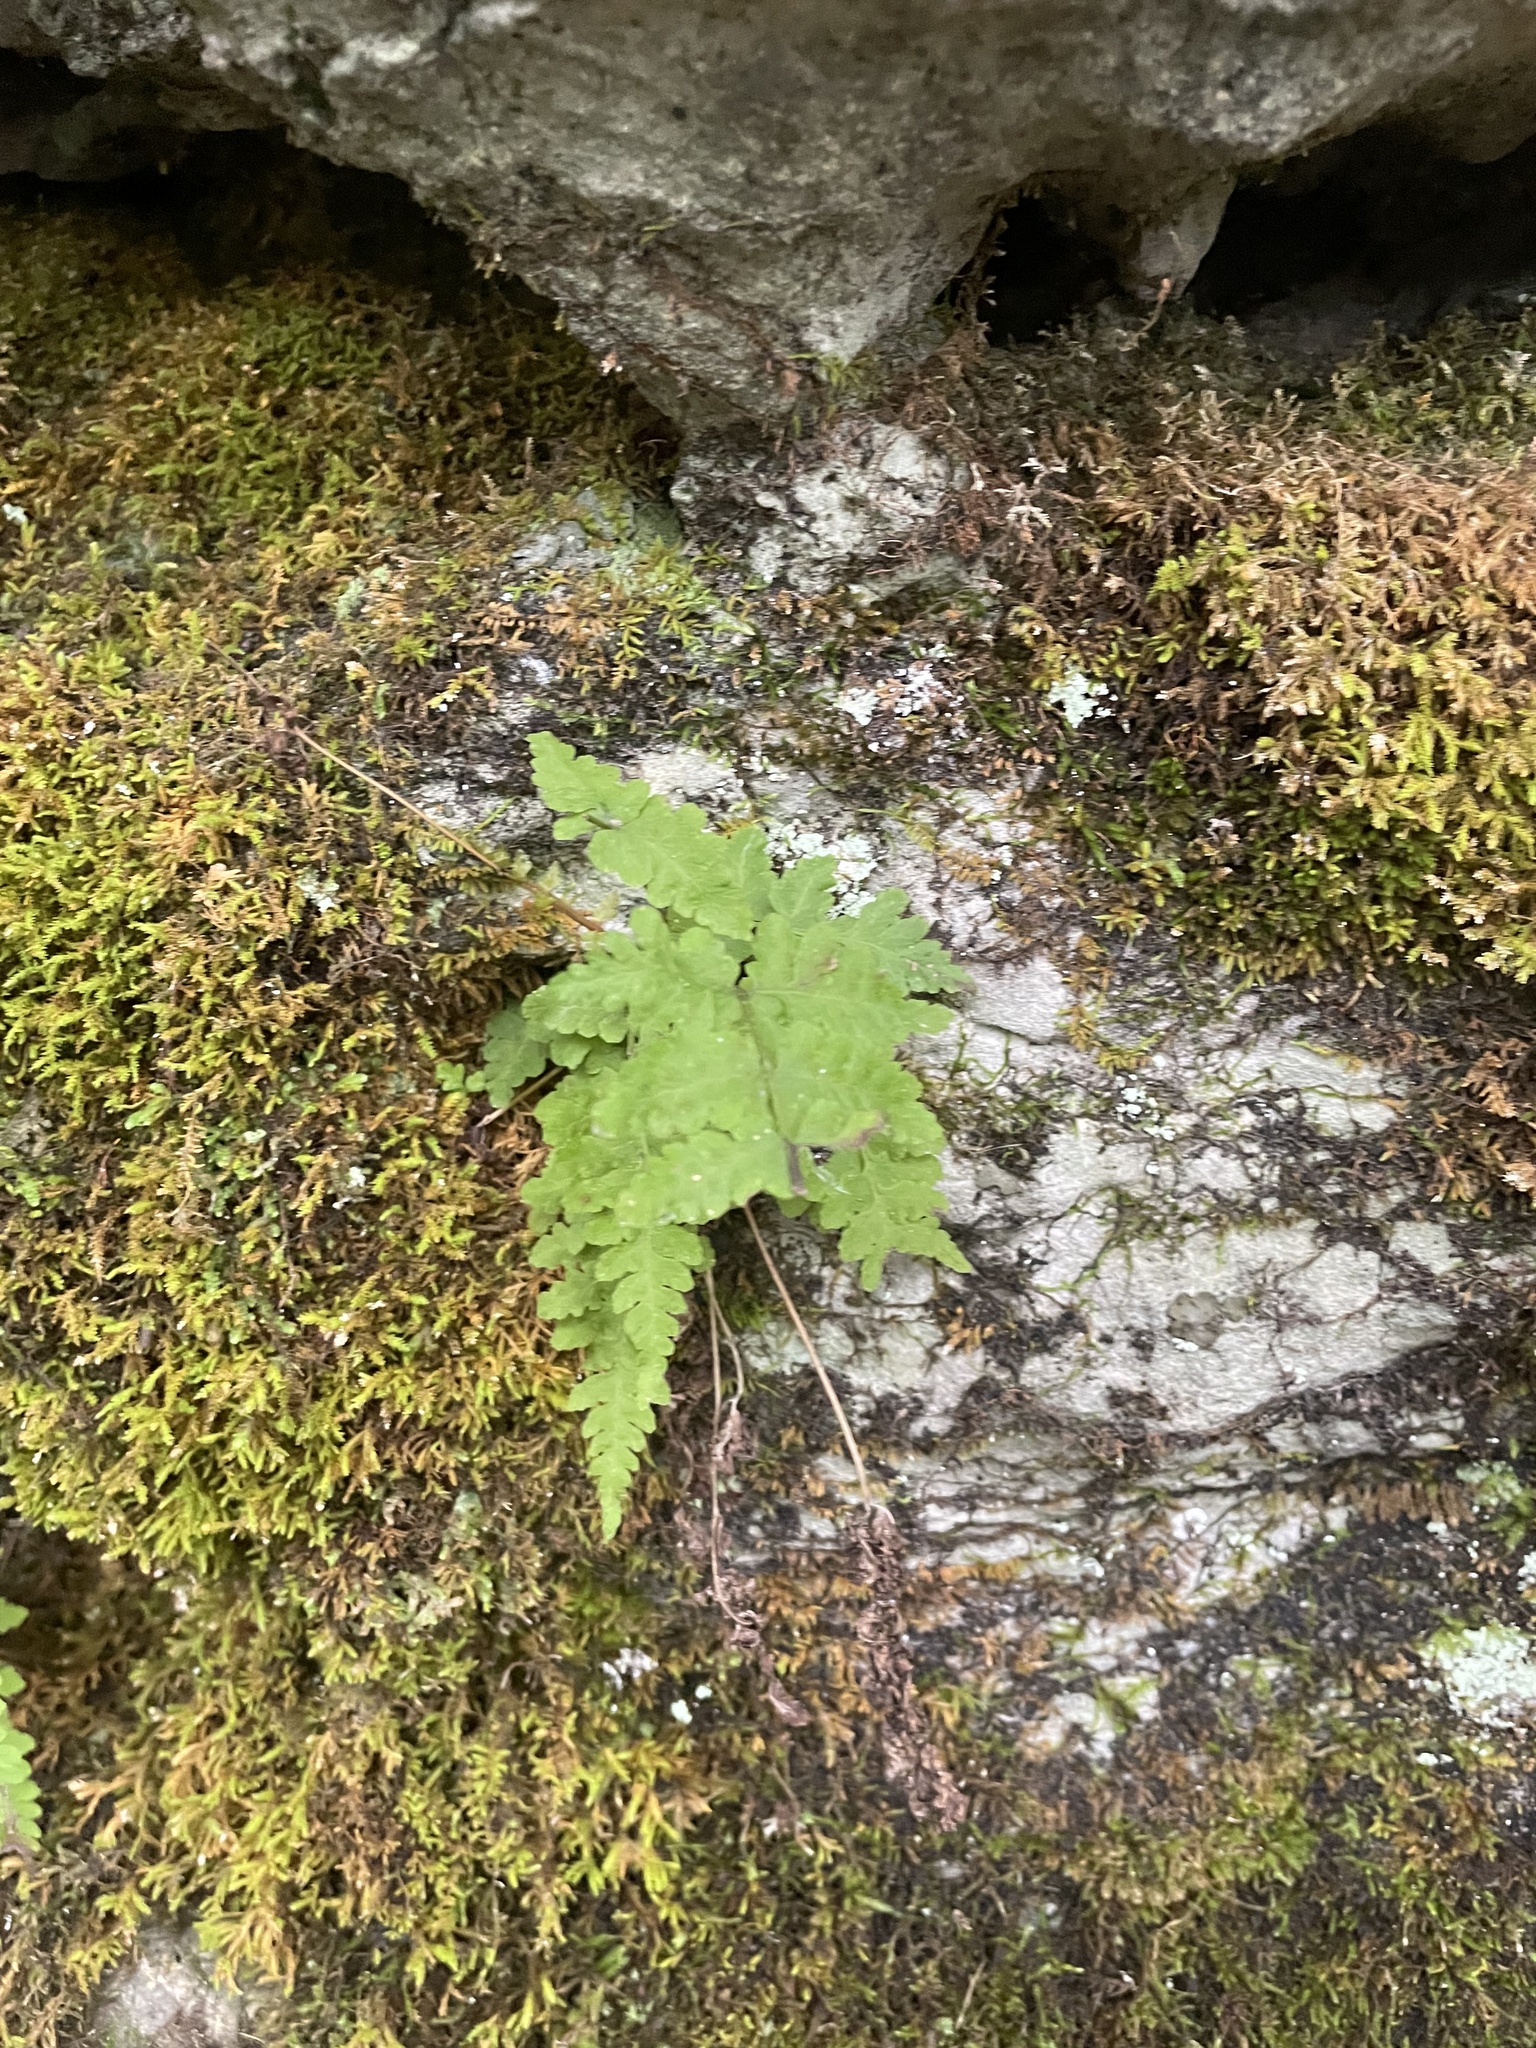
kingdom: Plantae
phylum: Tracheophyta
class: Polypodiopsida
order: Polypodiales
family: Woodsiaceae
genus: Physematium
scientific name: Physematium obtusum
